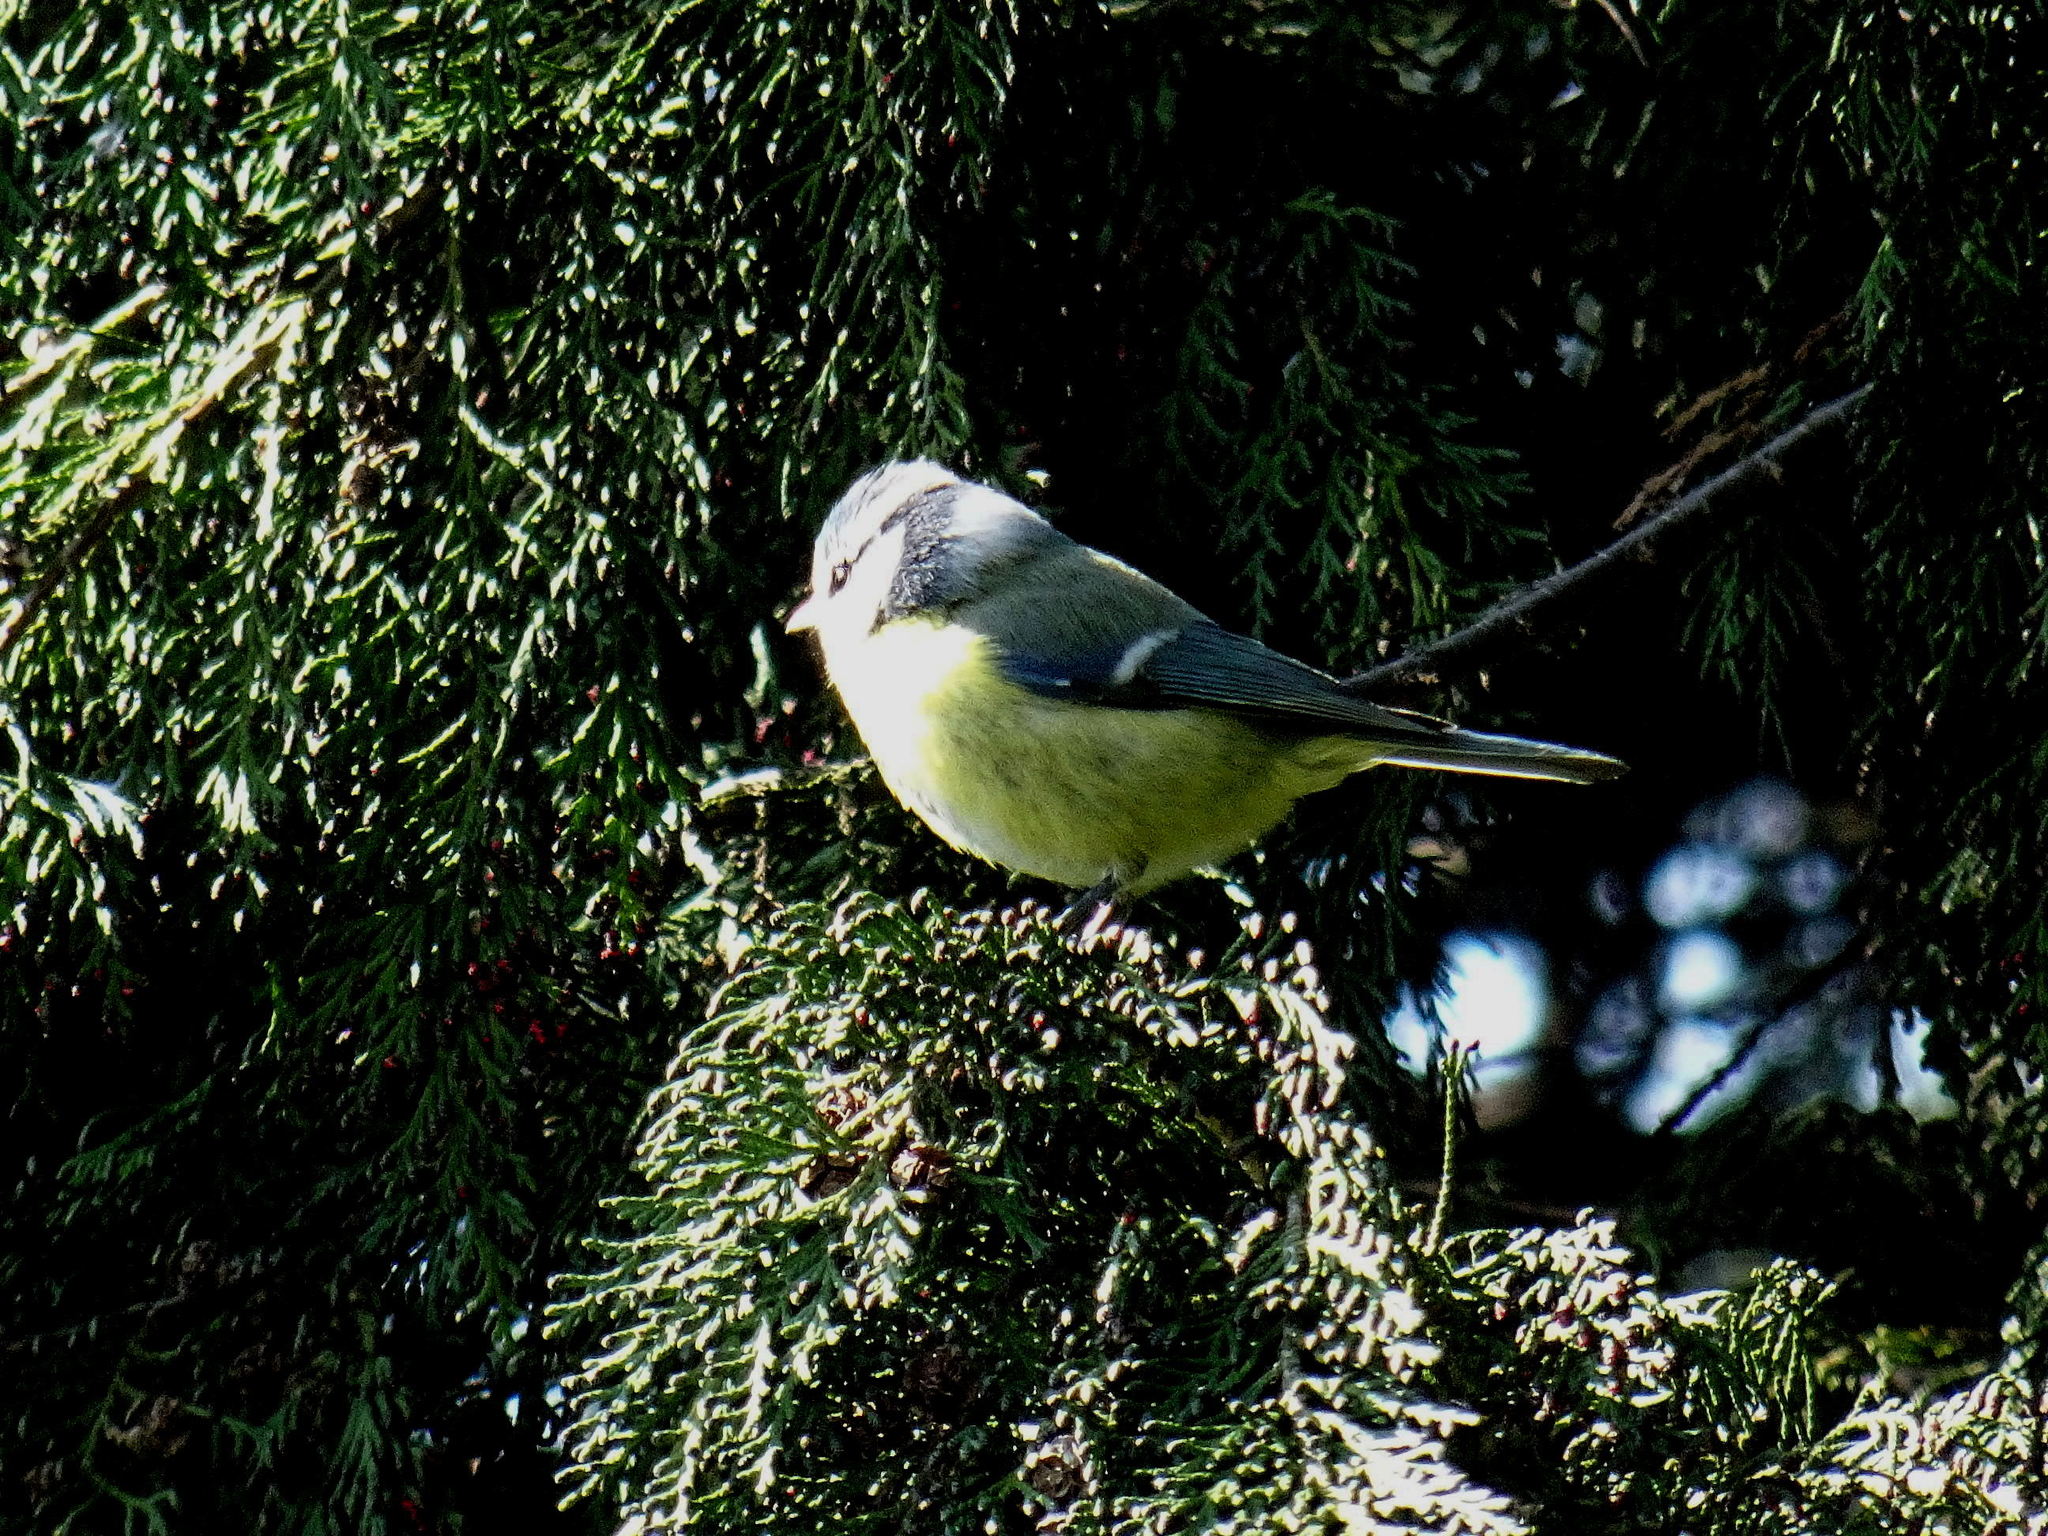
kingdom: Animalia
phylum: Chordata
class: Aves
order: Passeriformes
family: Paridae
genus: Cyanistes
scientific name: Cyanistes caeruleus
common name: Eurasian blue tit
